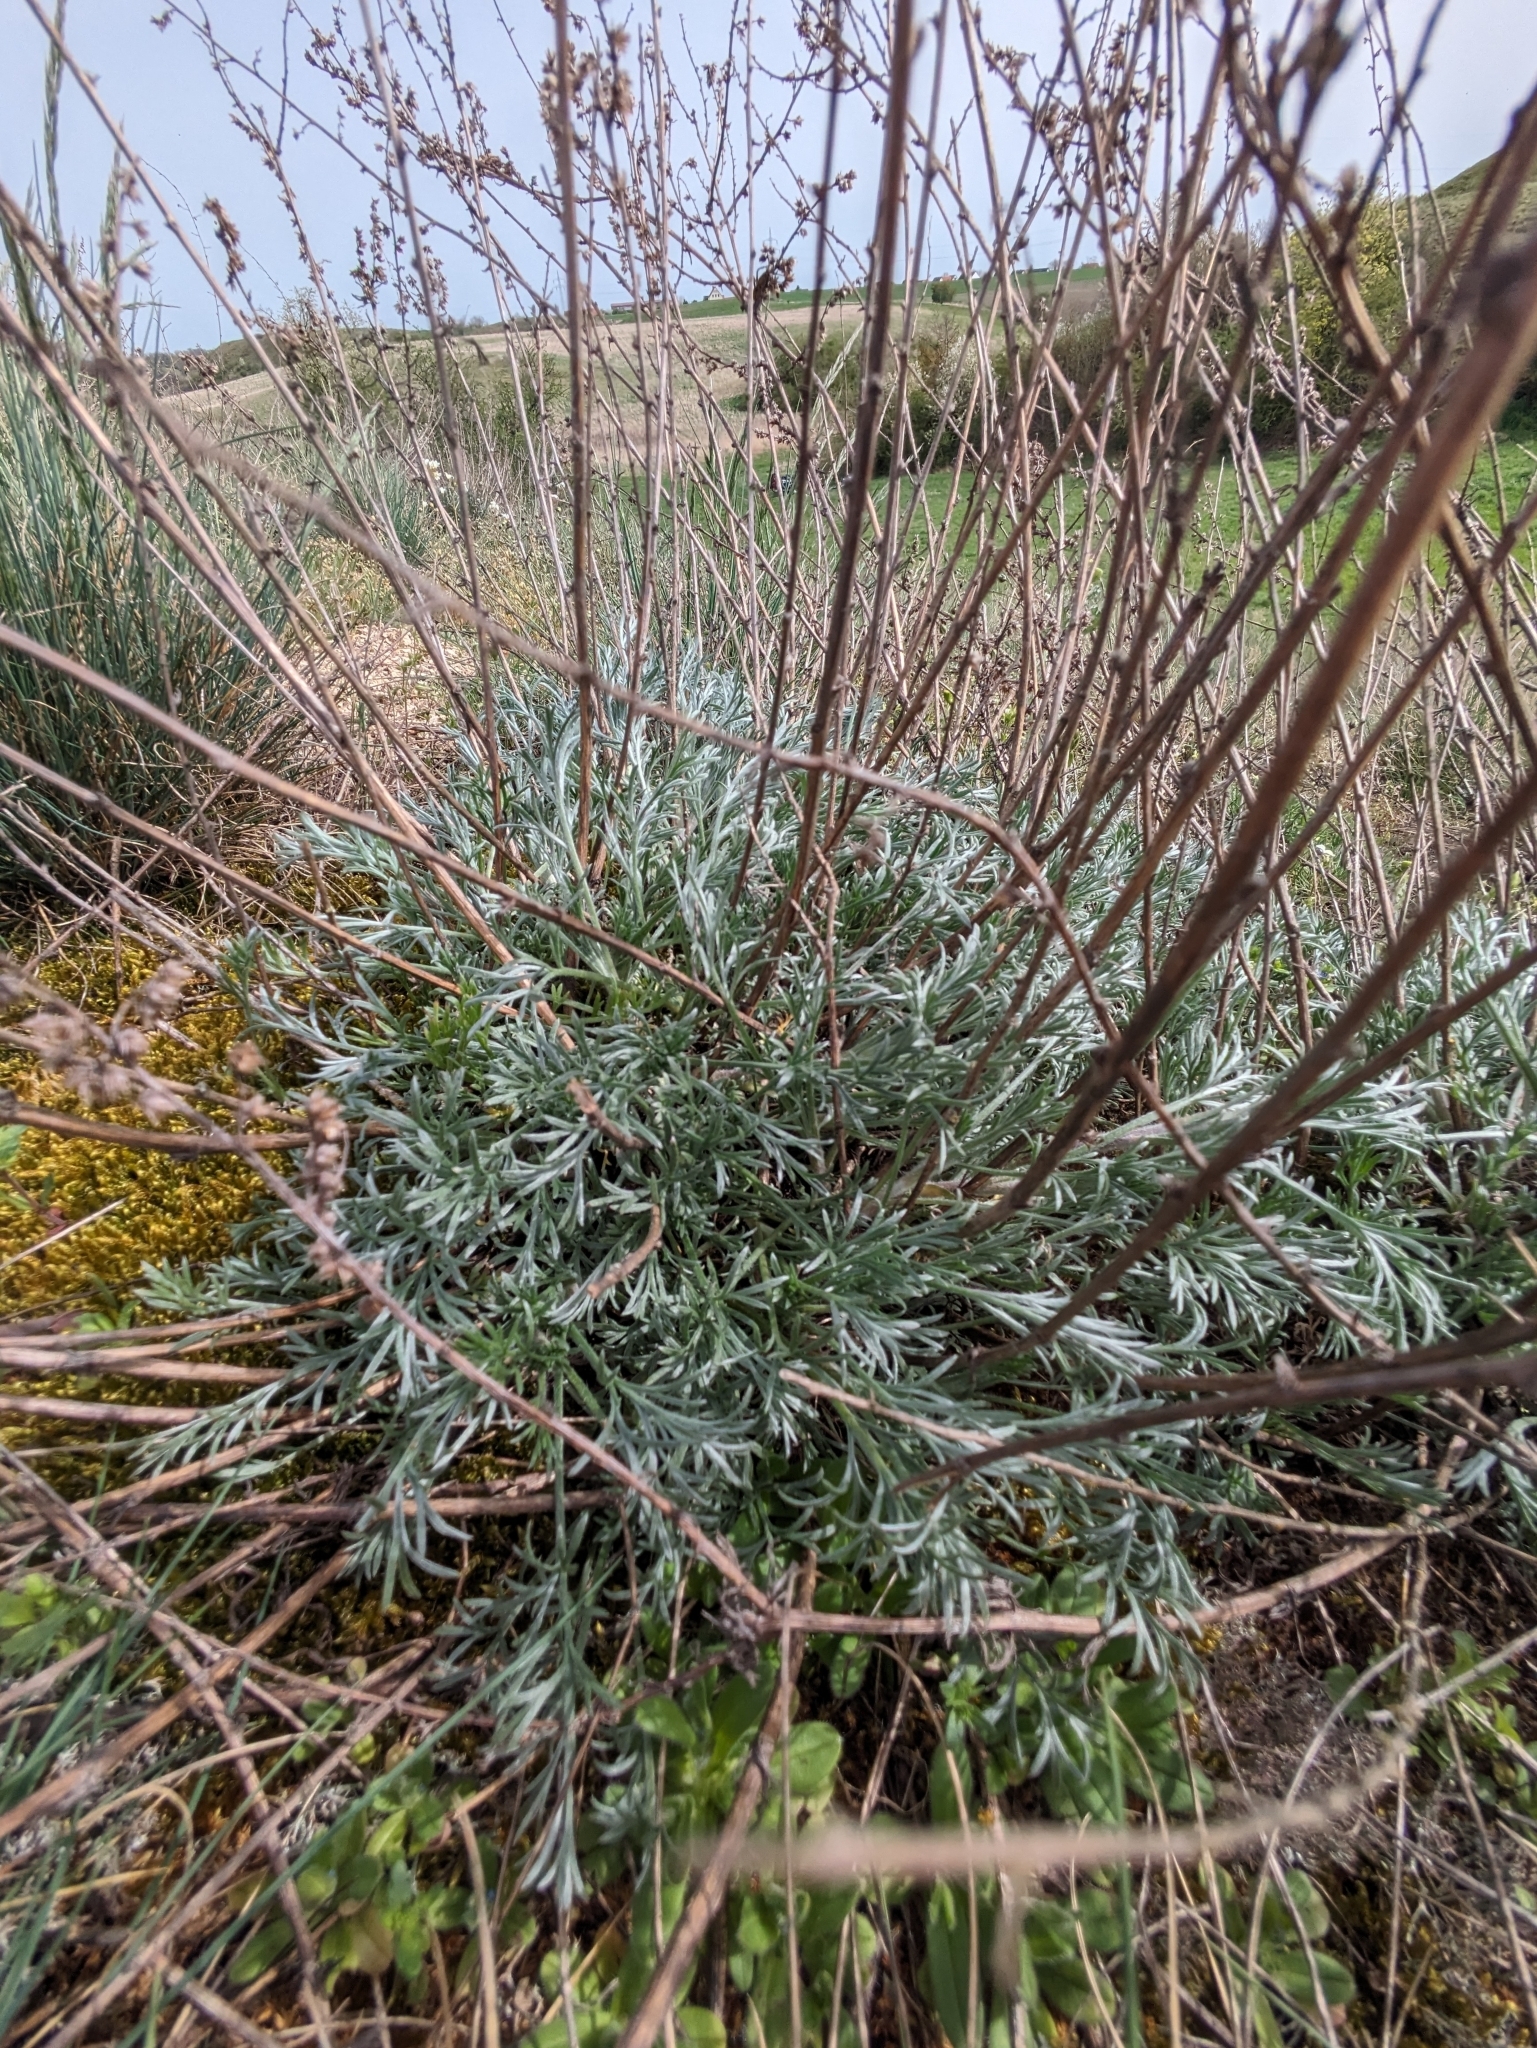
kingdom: Plantae
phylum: Tracheophyta
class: Magnoliopsida
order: Asterales
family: Asteraceae
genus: Artemisia
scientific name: Artemisia campestris
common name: Field wormwood
